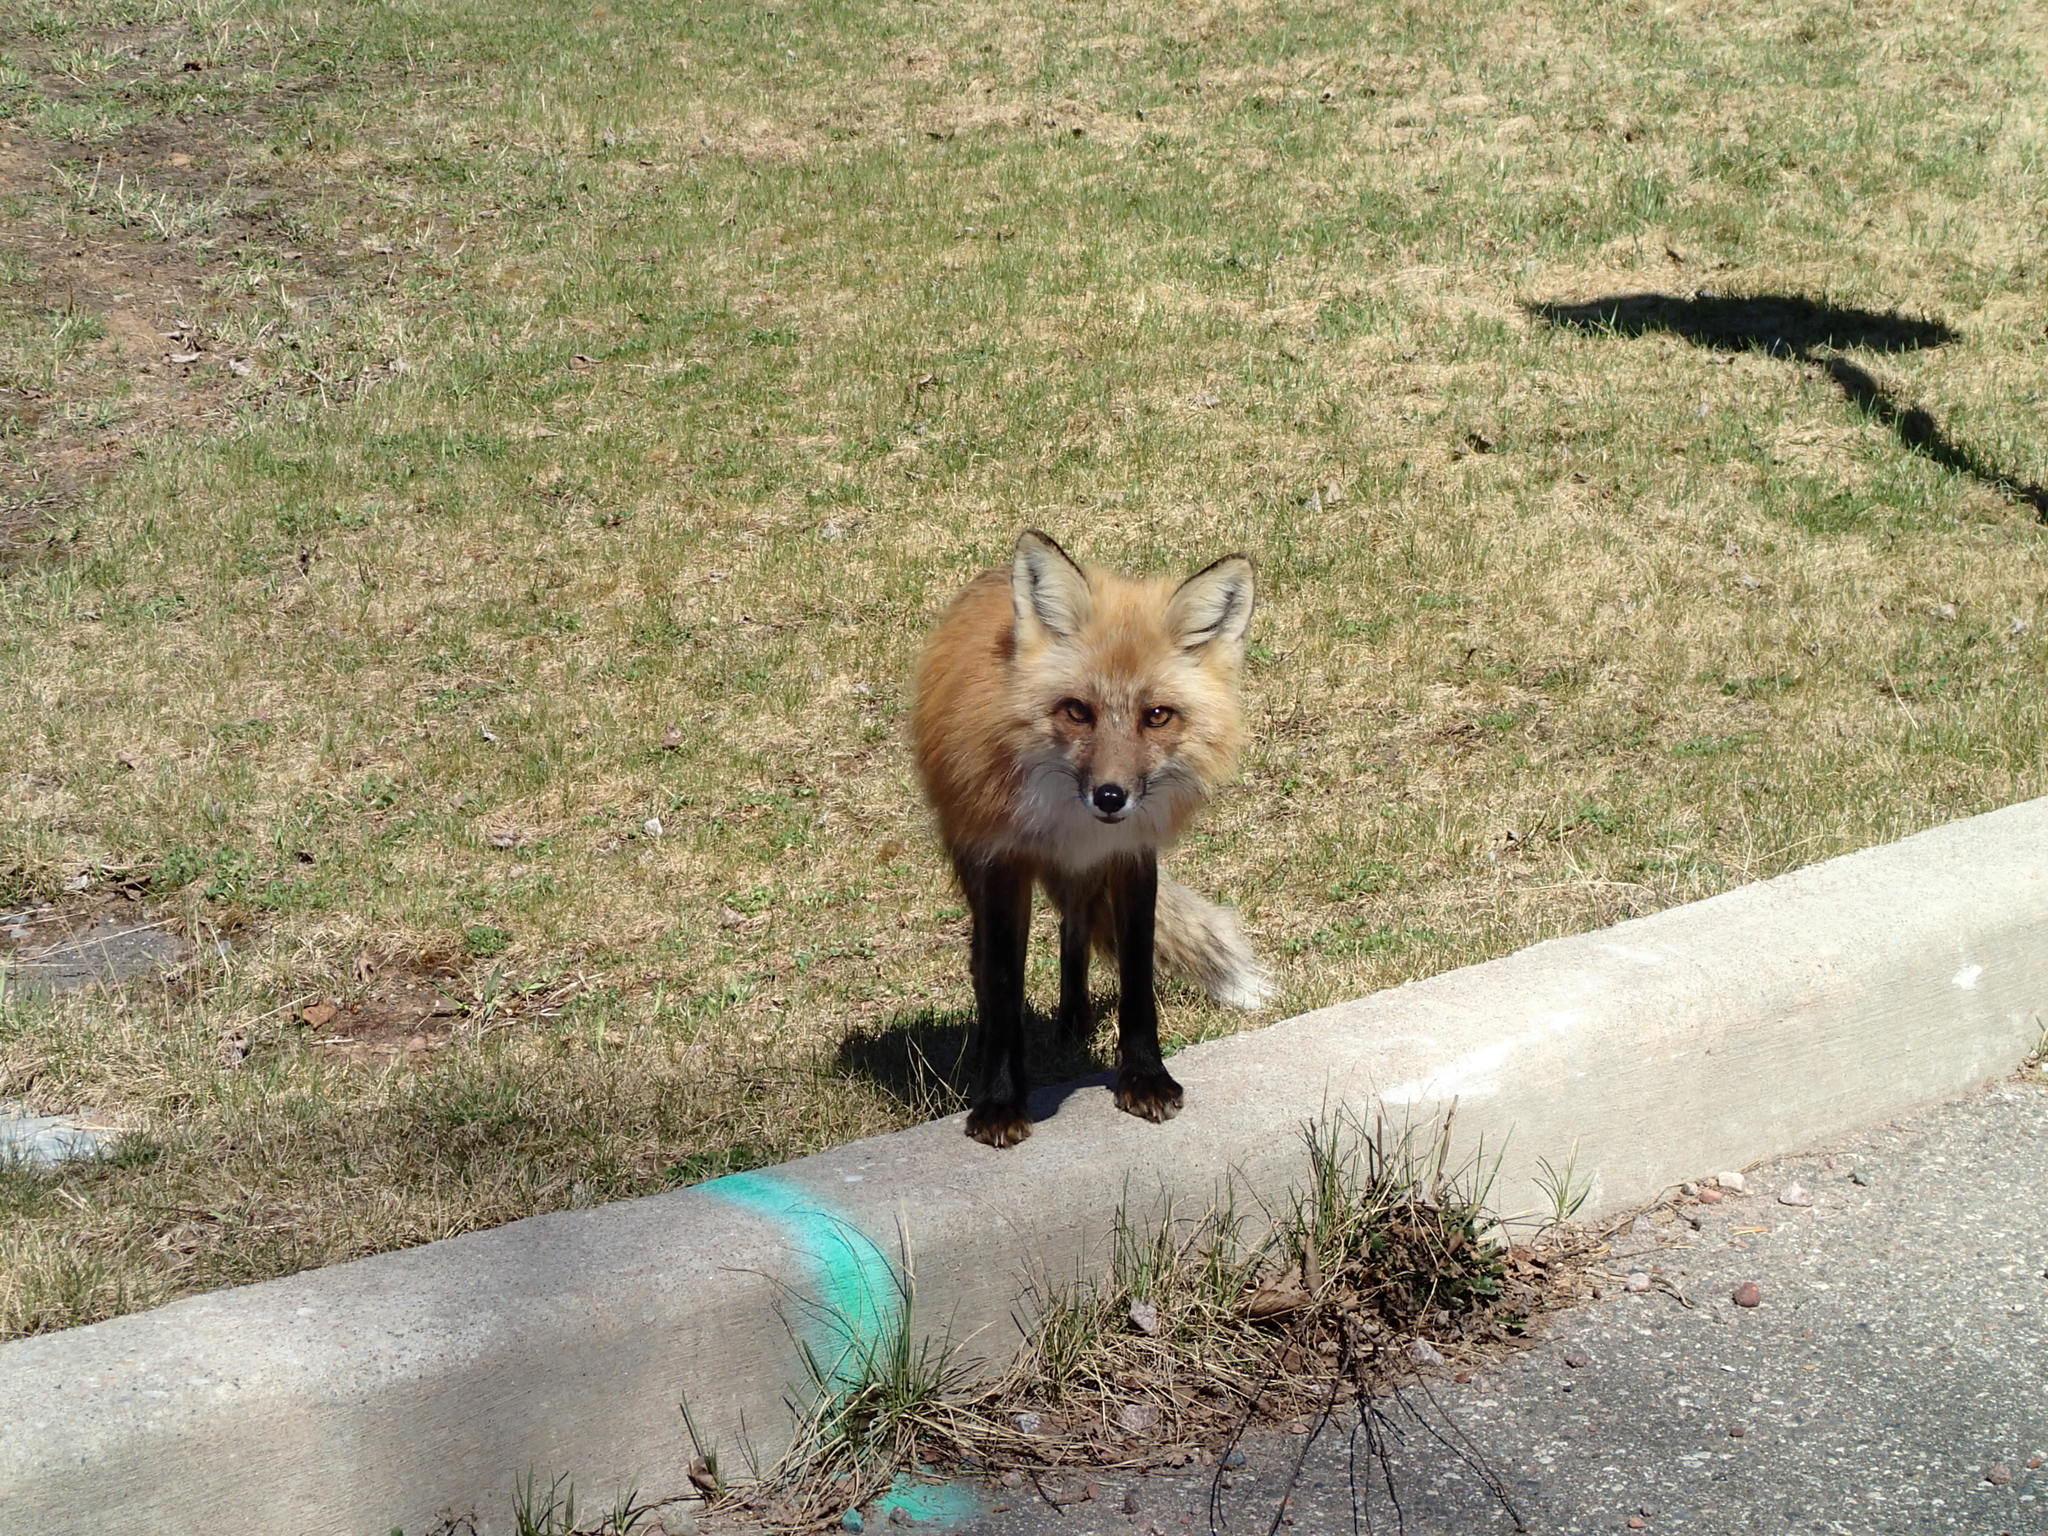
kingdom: Animalia
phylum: Chordata
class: Mammalia
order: Carnivora
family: Canidae
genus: Vulpes
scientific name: Vulpes vulpes
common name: Red fox
